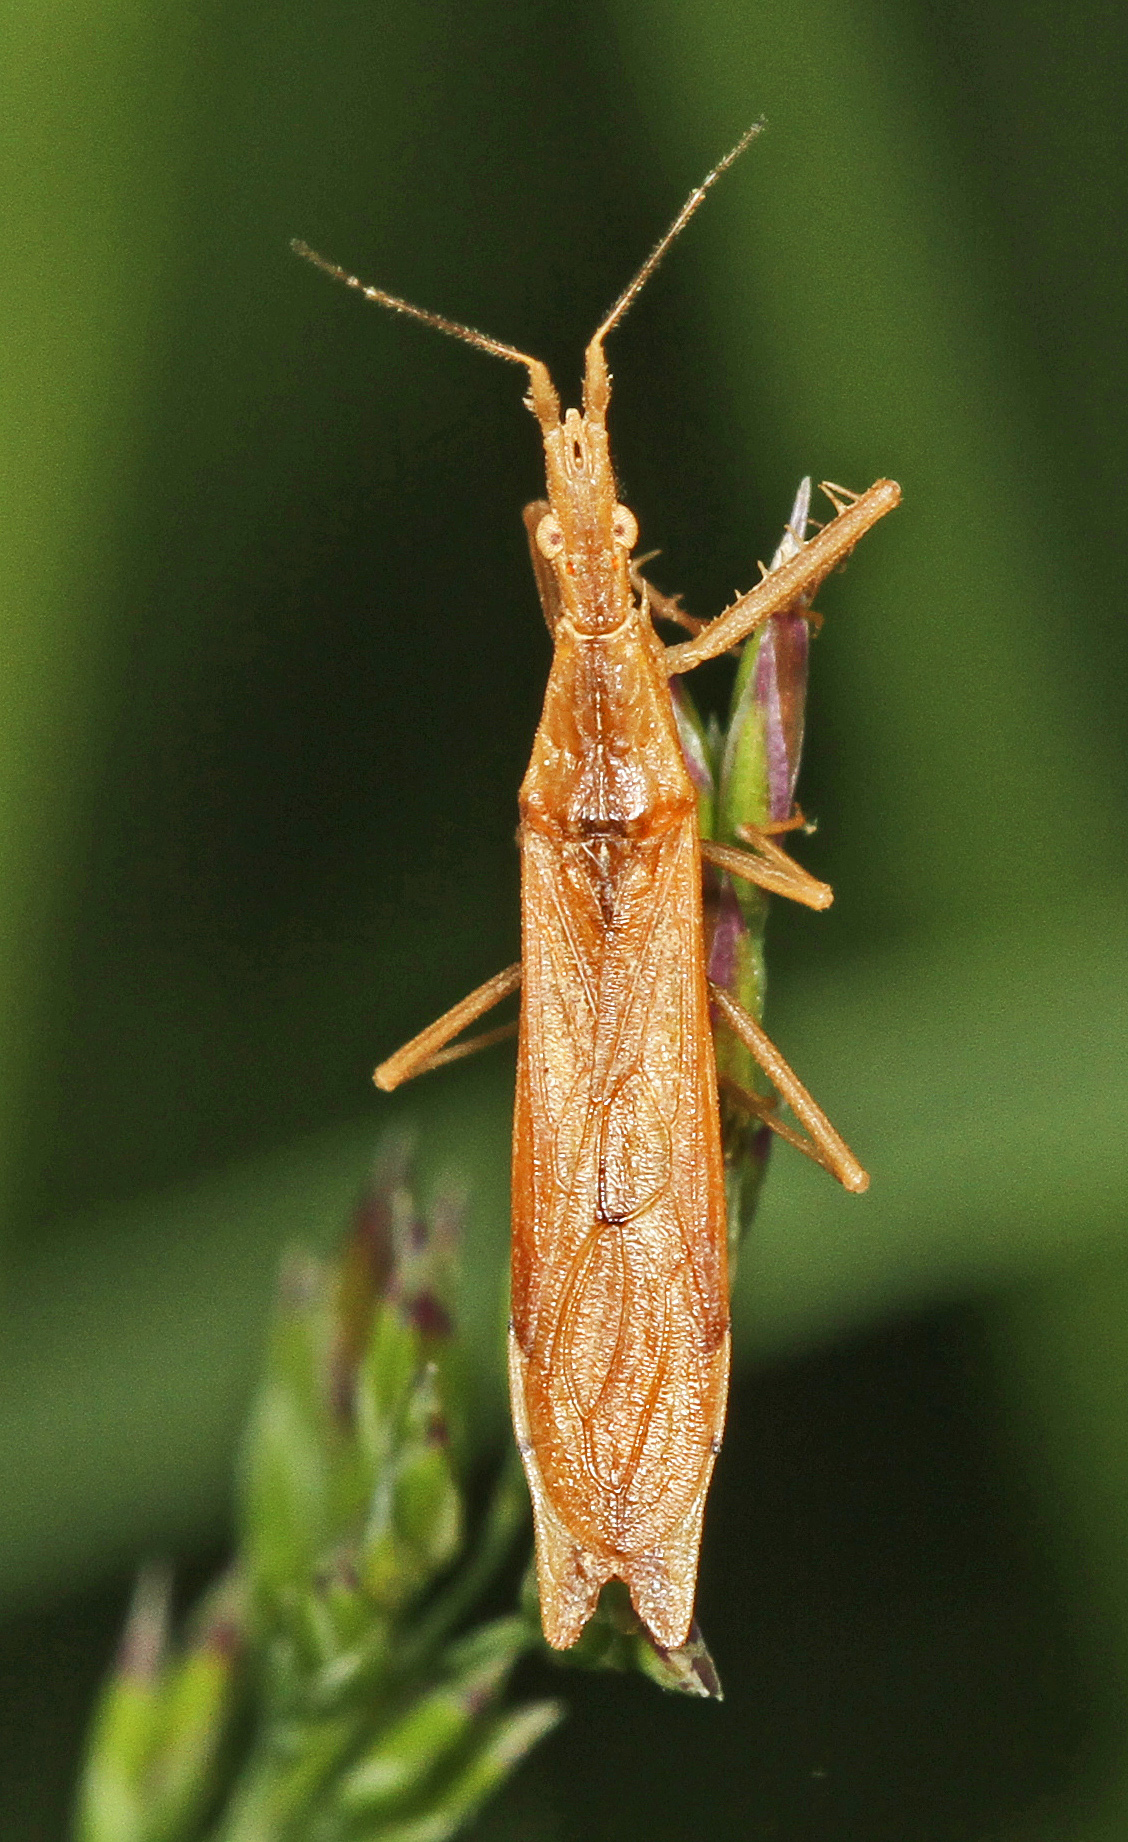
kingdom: Animalia
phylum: Arthropoda
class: Insecta
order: Hemiptera
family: Reduviidae
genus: Pnirontis
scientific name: Pnirontis modesta
